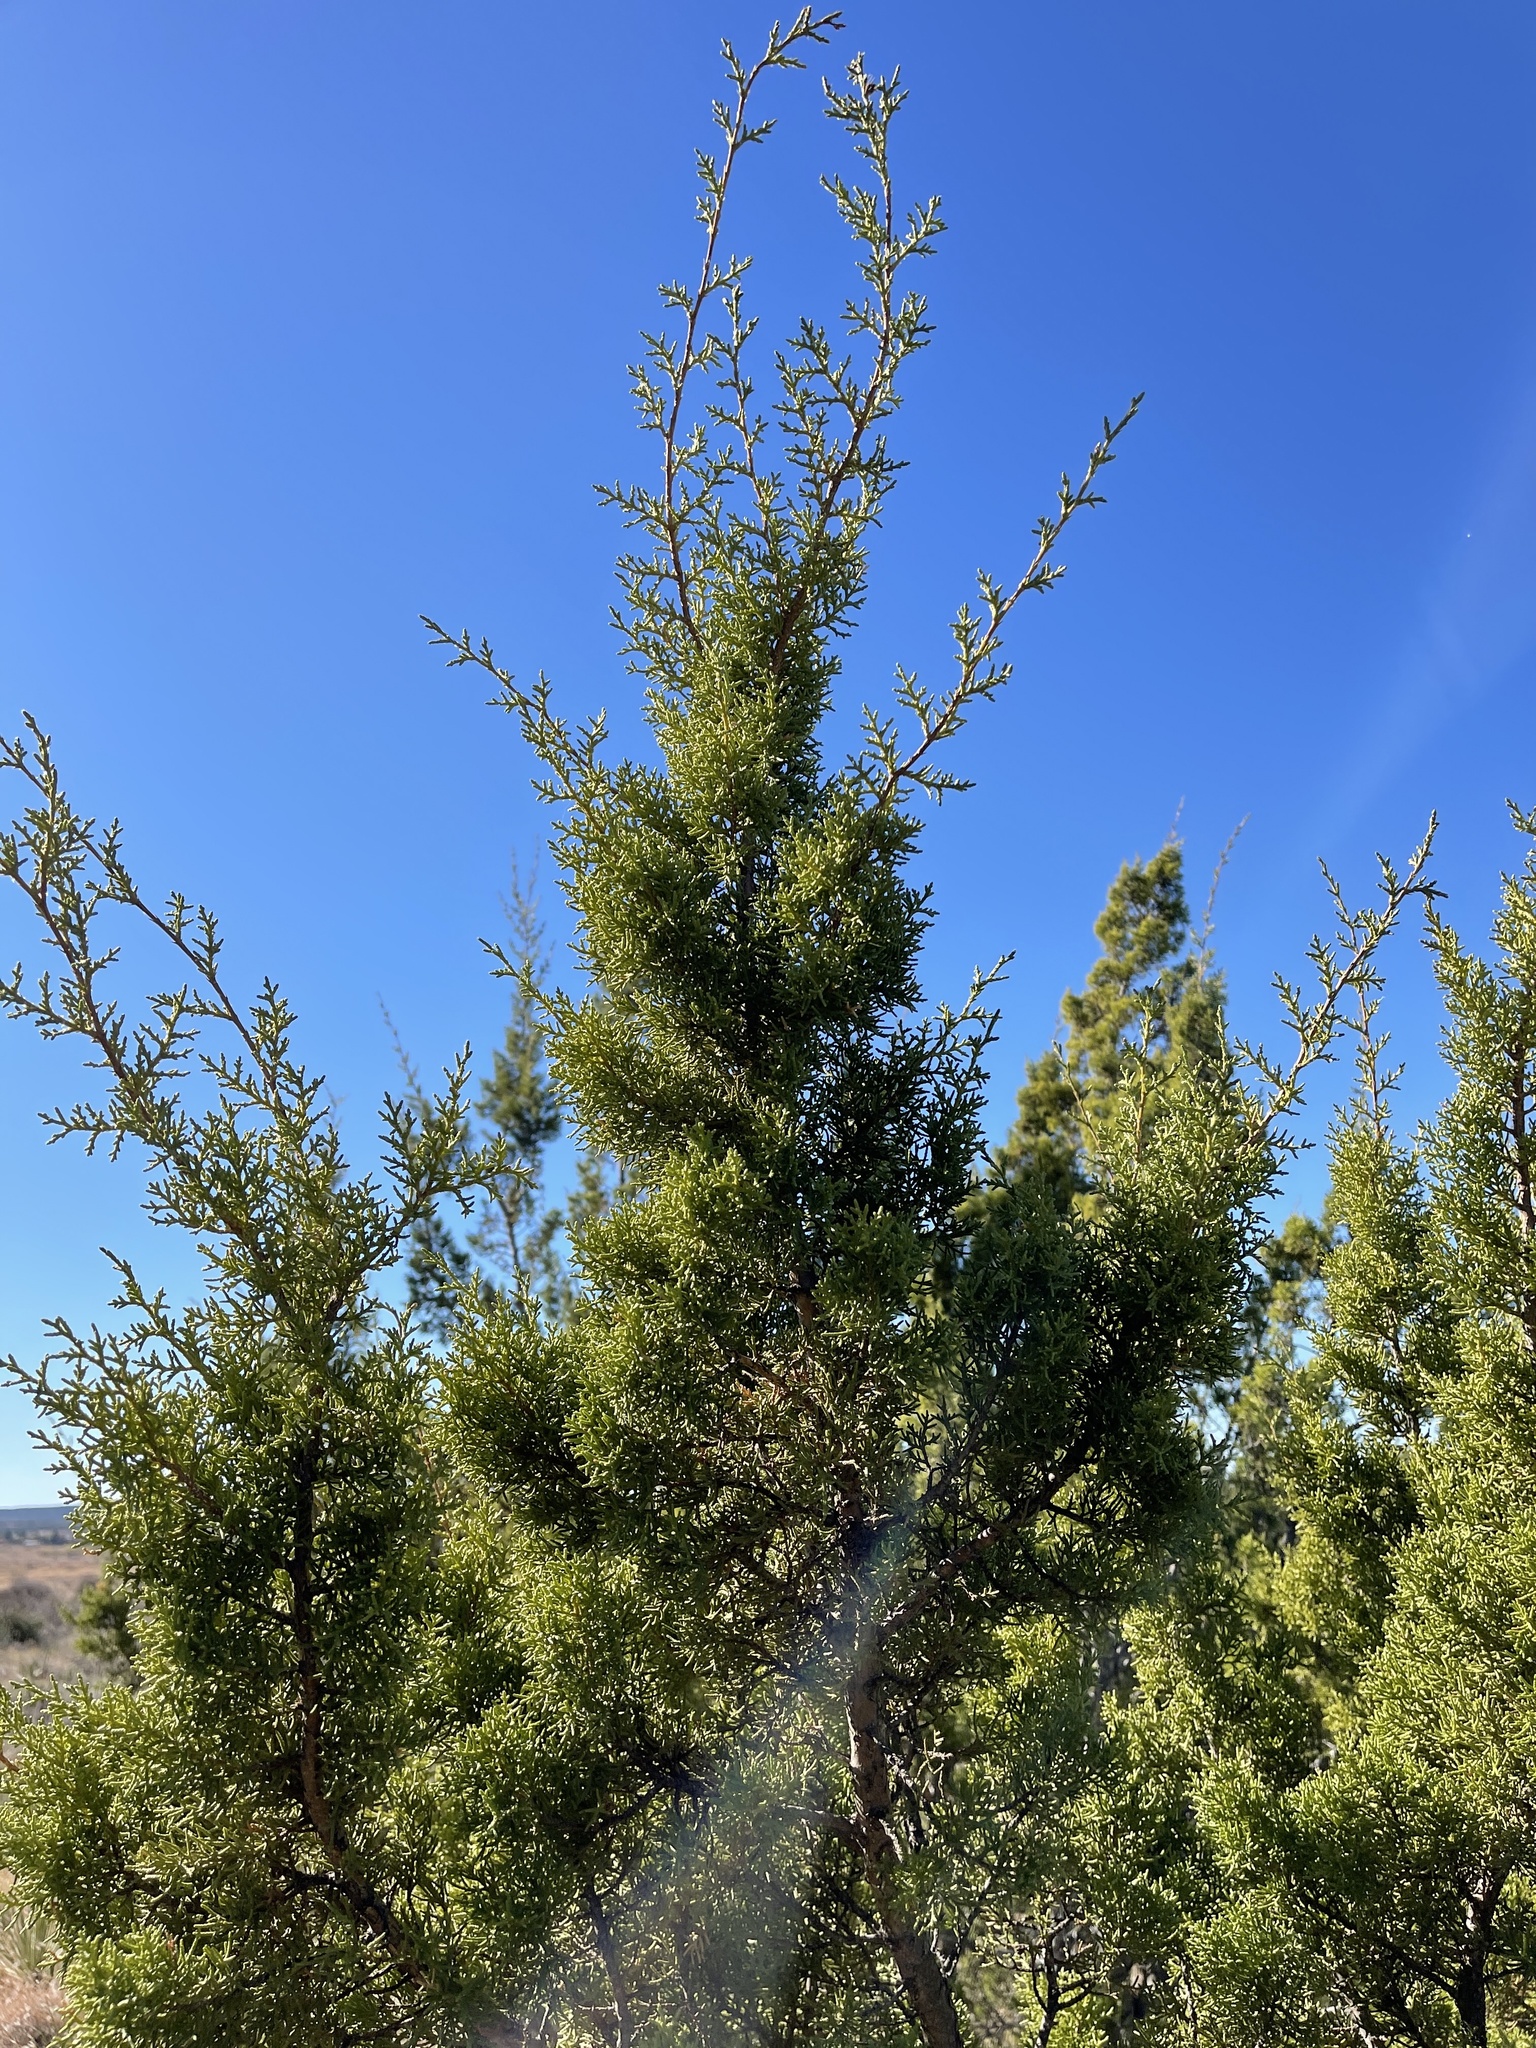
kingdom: Plantae
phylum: Tracheophyta
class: Pinopsida
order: Pinales
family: Cupressaceae
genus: Juniperus
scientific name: Juniperus pinchotii
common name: Pinchot juniper
